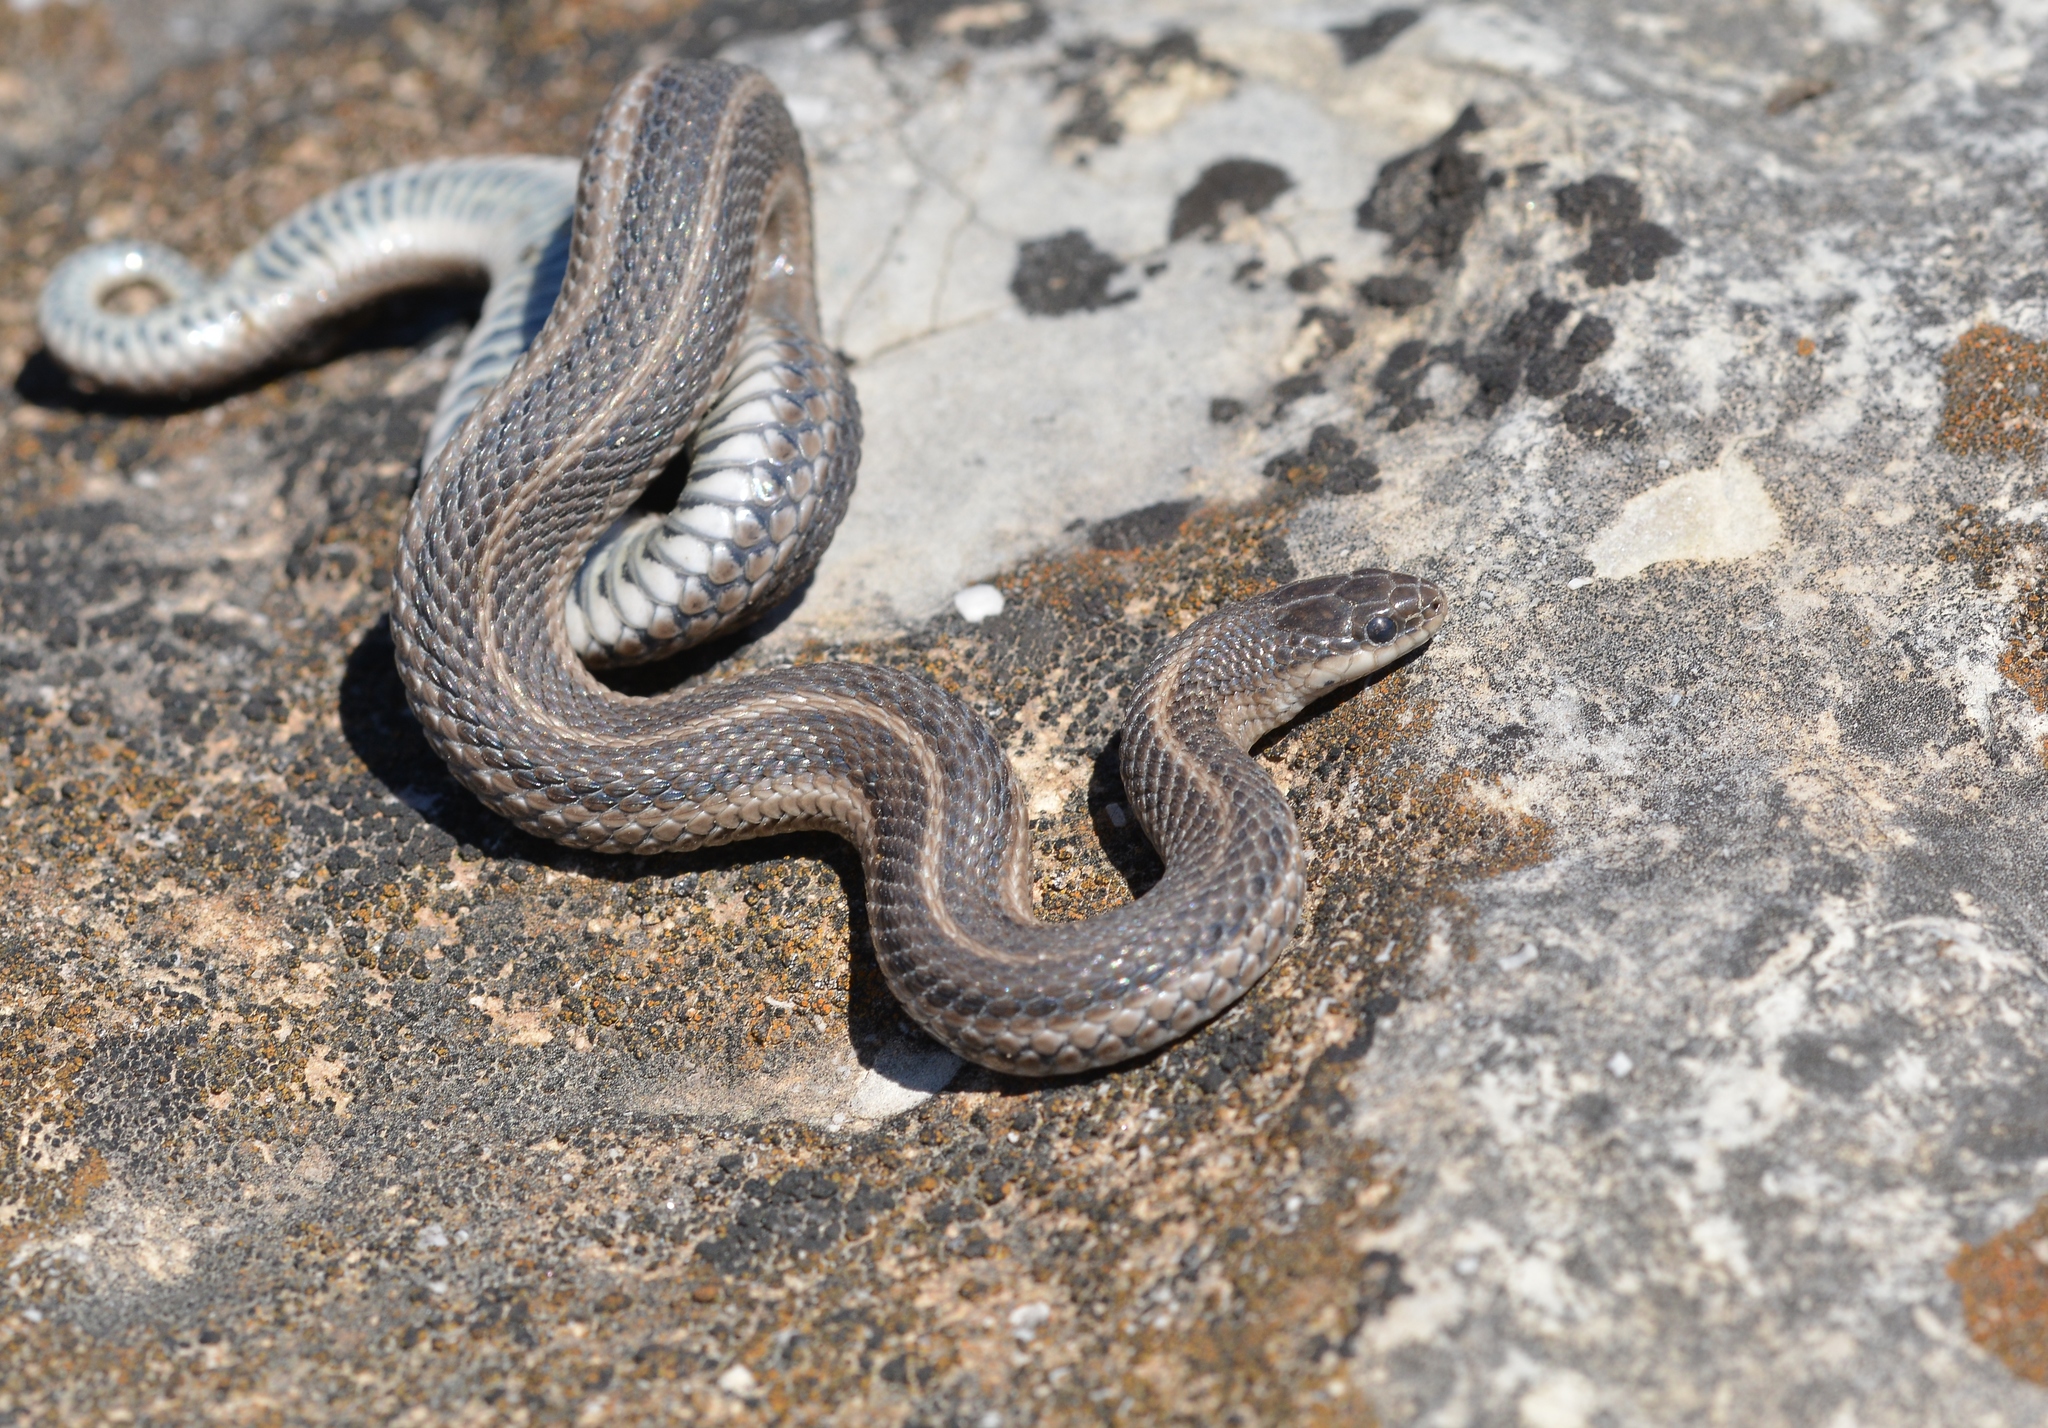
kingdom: Animalia
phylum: Chordata
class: Squamata
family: Colubridae
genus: Tropidoclonion
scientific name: Tropidoclonion lineatum
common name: Lined snake
